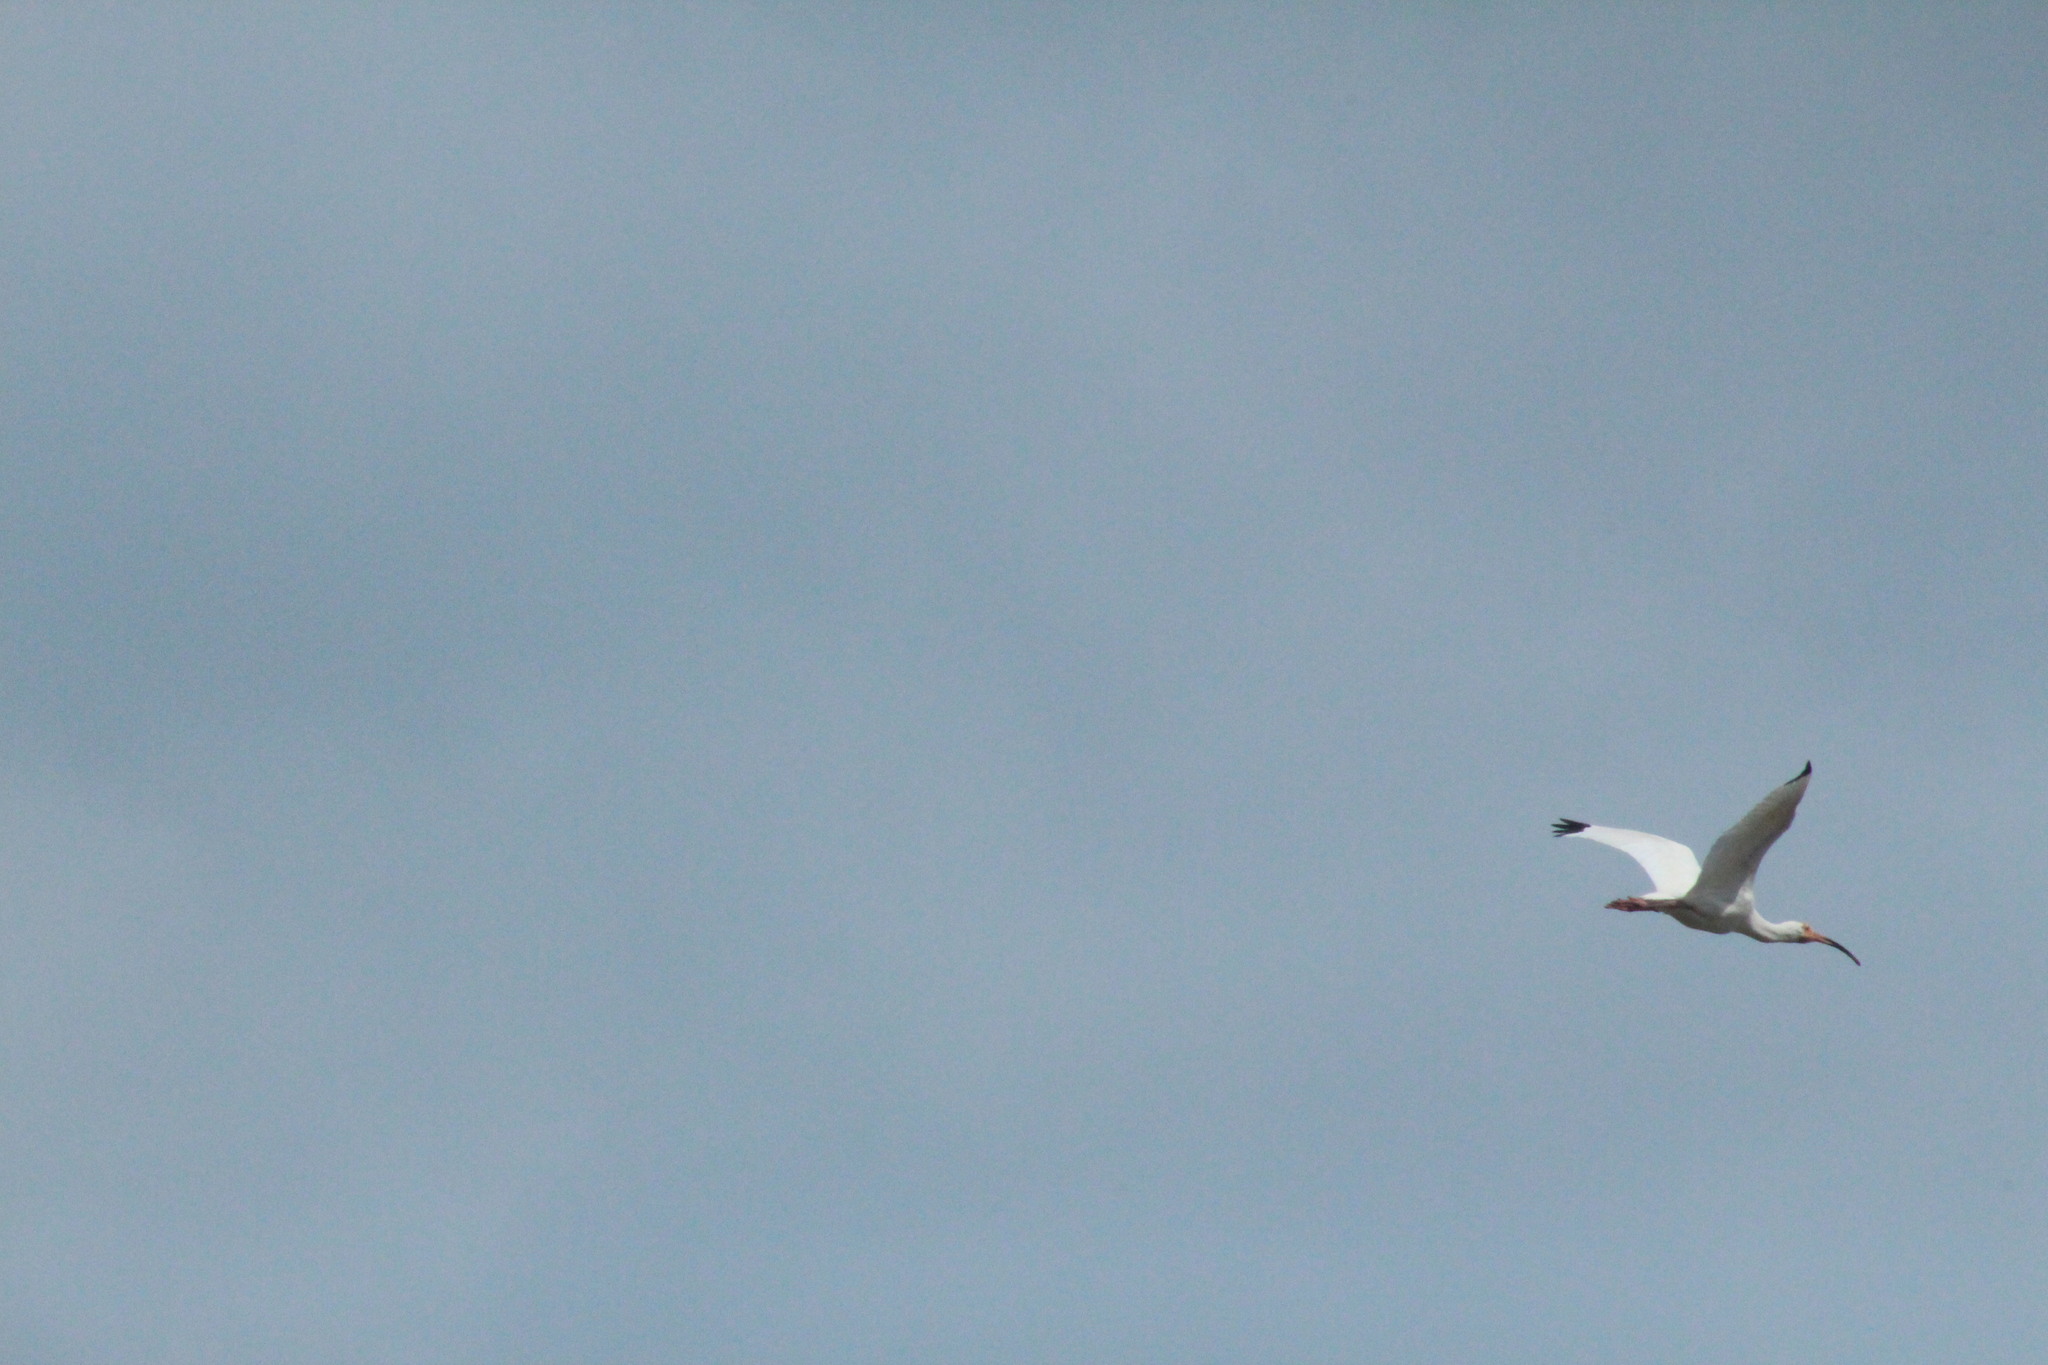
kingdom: Animalia
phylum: Chordata
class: Aves
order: Pelecaniformes
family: Threskiornithidae
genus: Eudocimus
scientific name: Eudocimus albus
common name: White ibis
